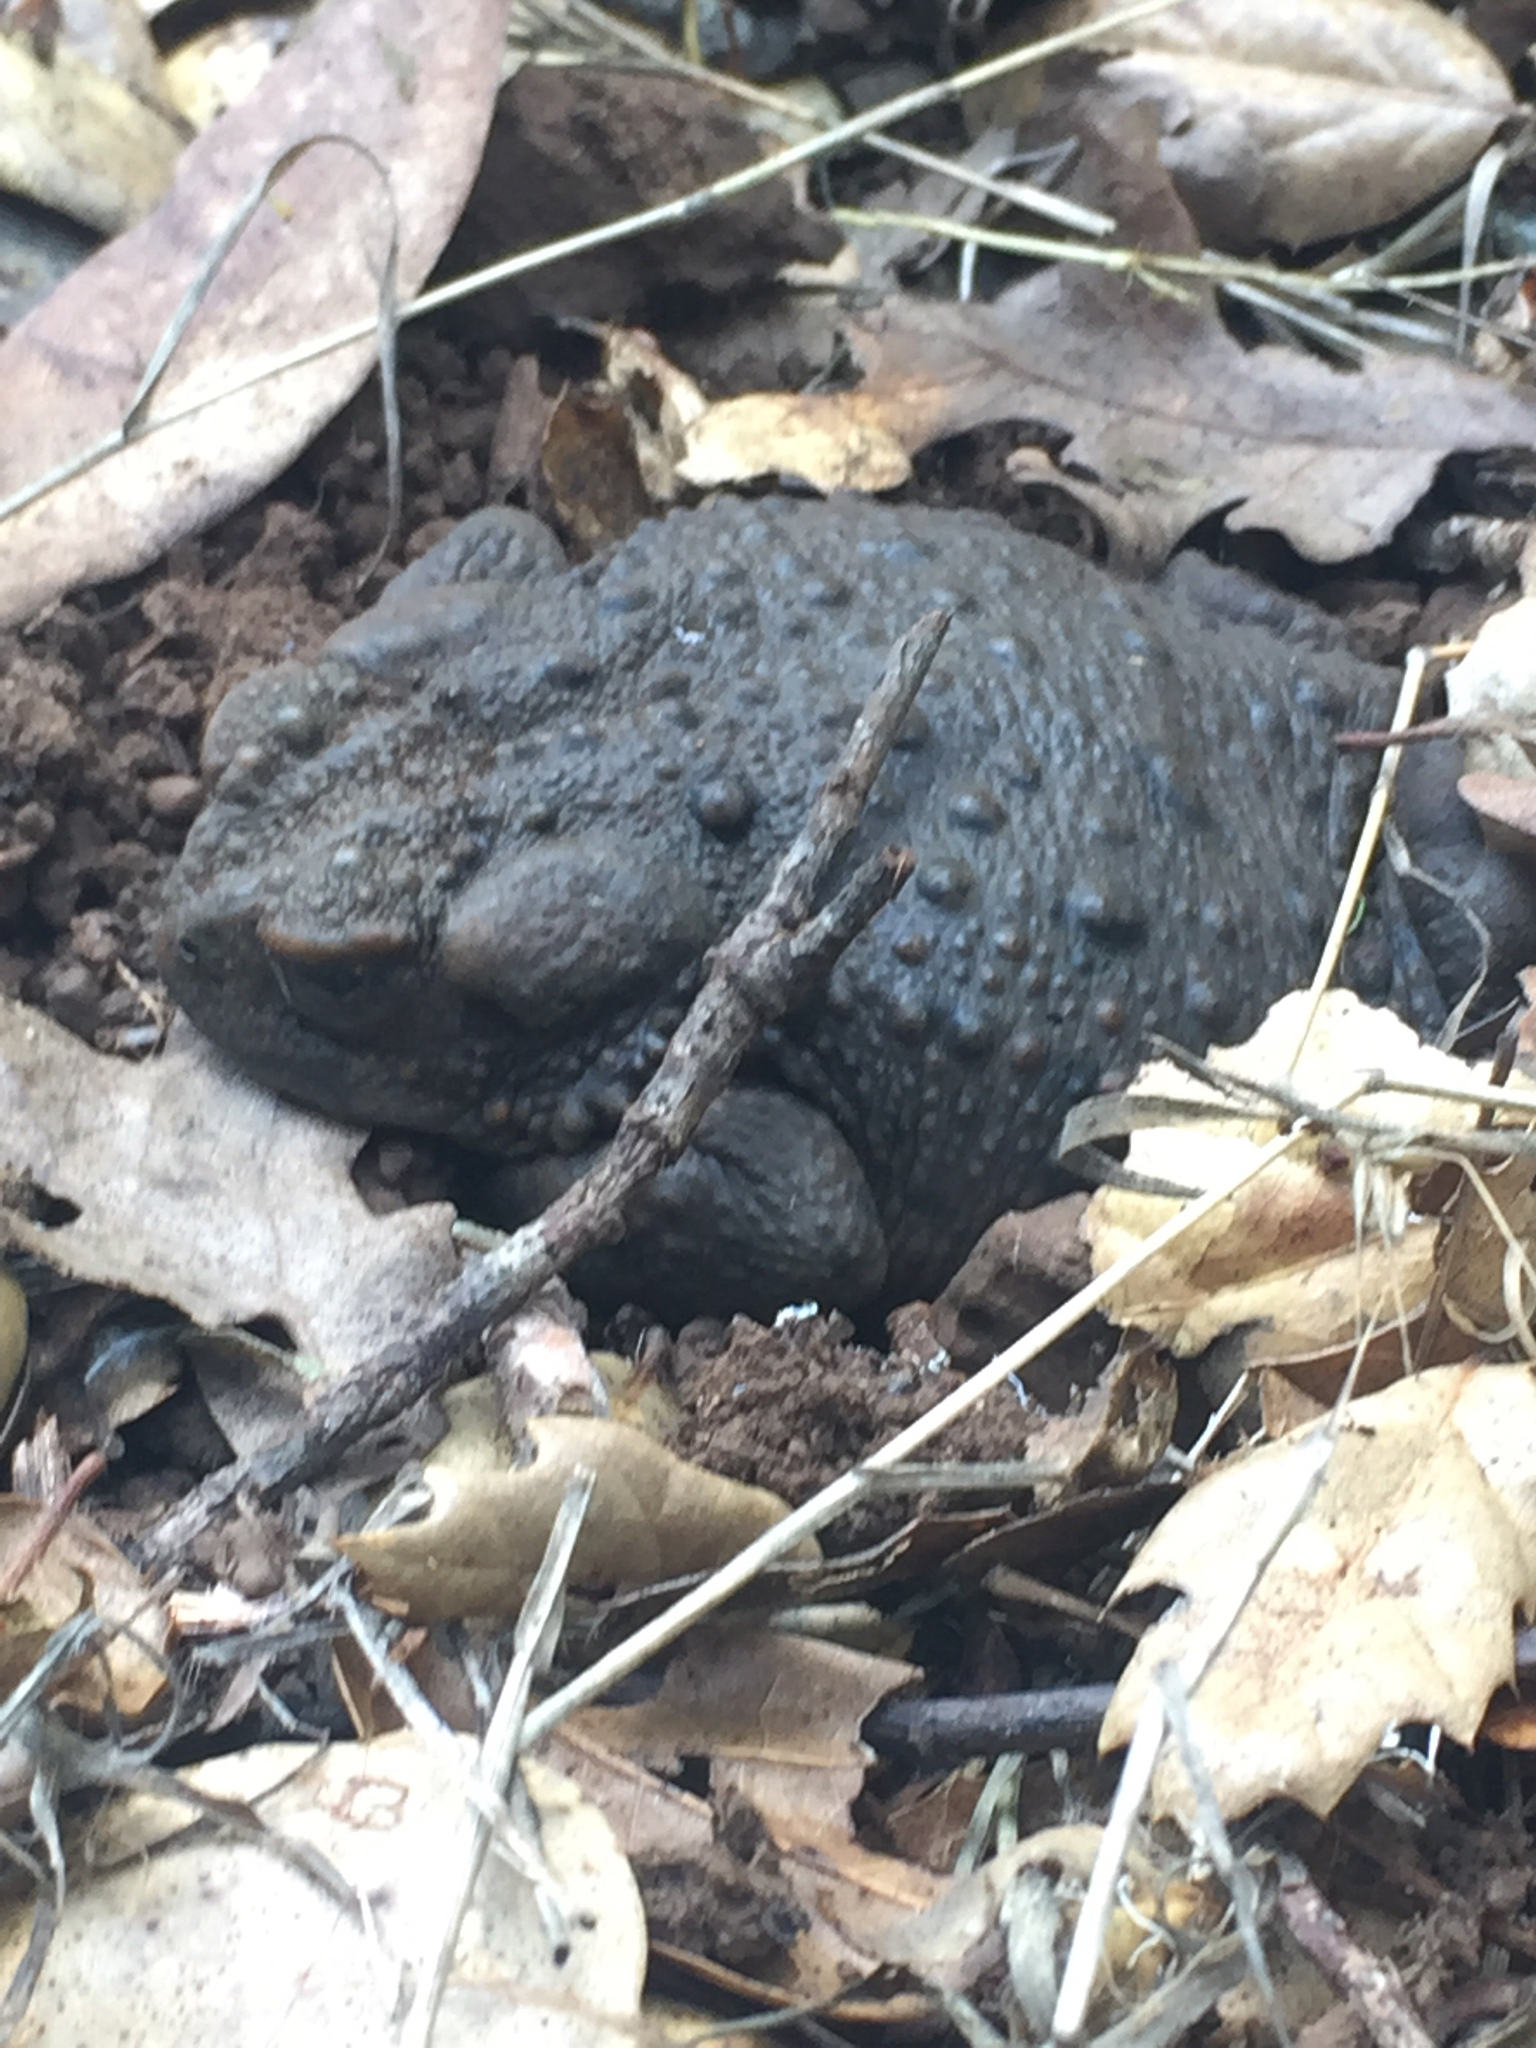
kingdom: Animalia
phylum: Chordata
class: Amphibia
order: Anura
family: Bufonidae
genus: Anaxyrus
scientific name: Anaxyrus boreas
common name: Western toad
